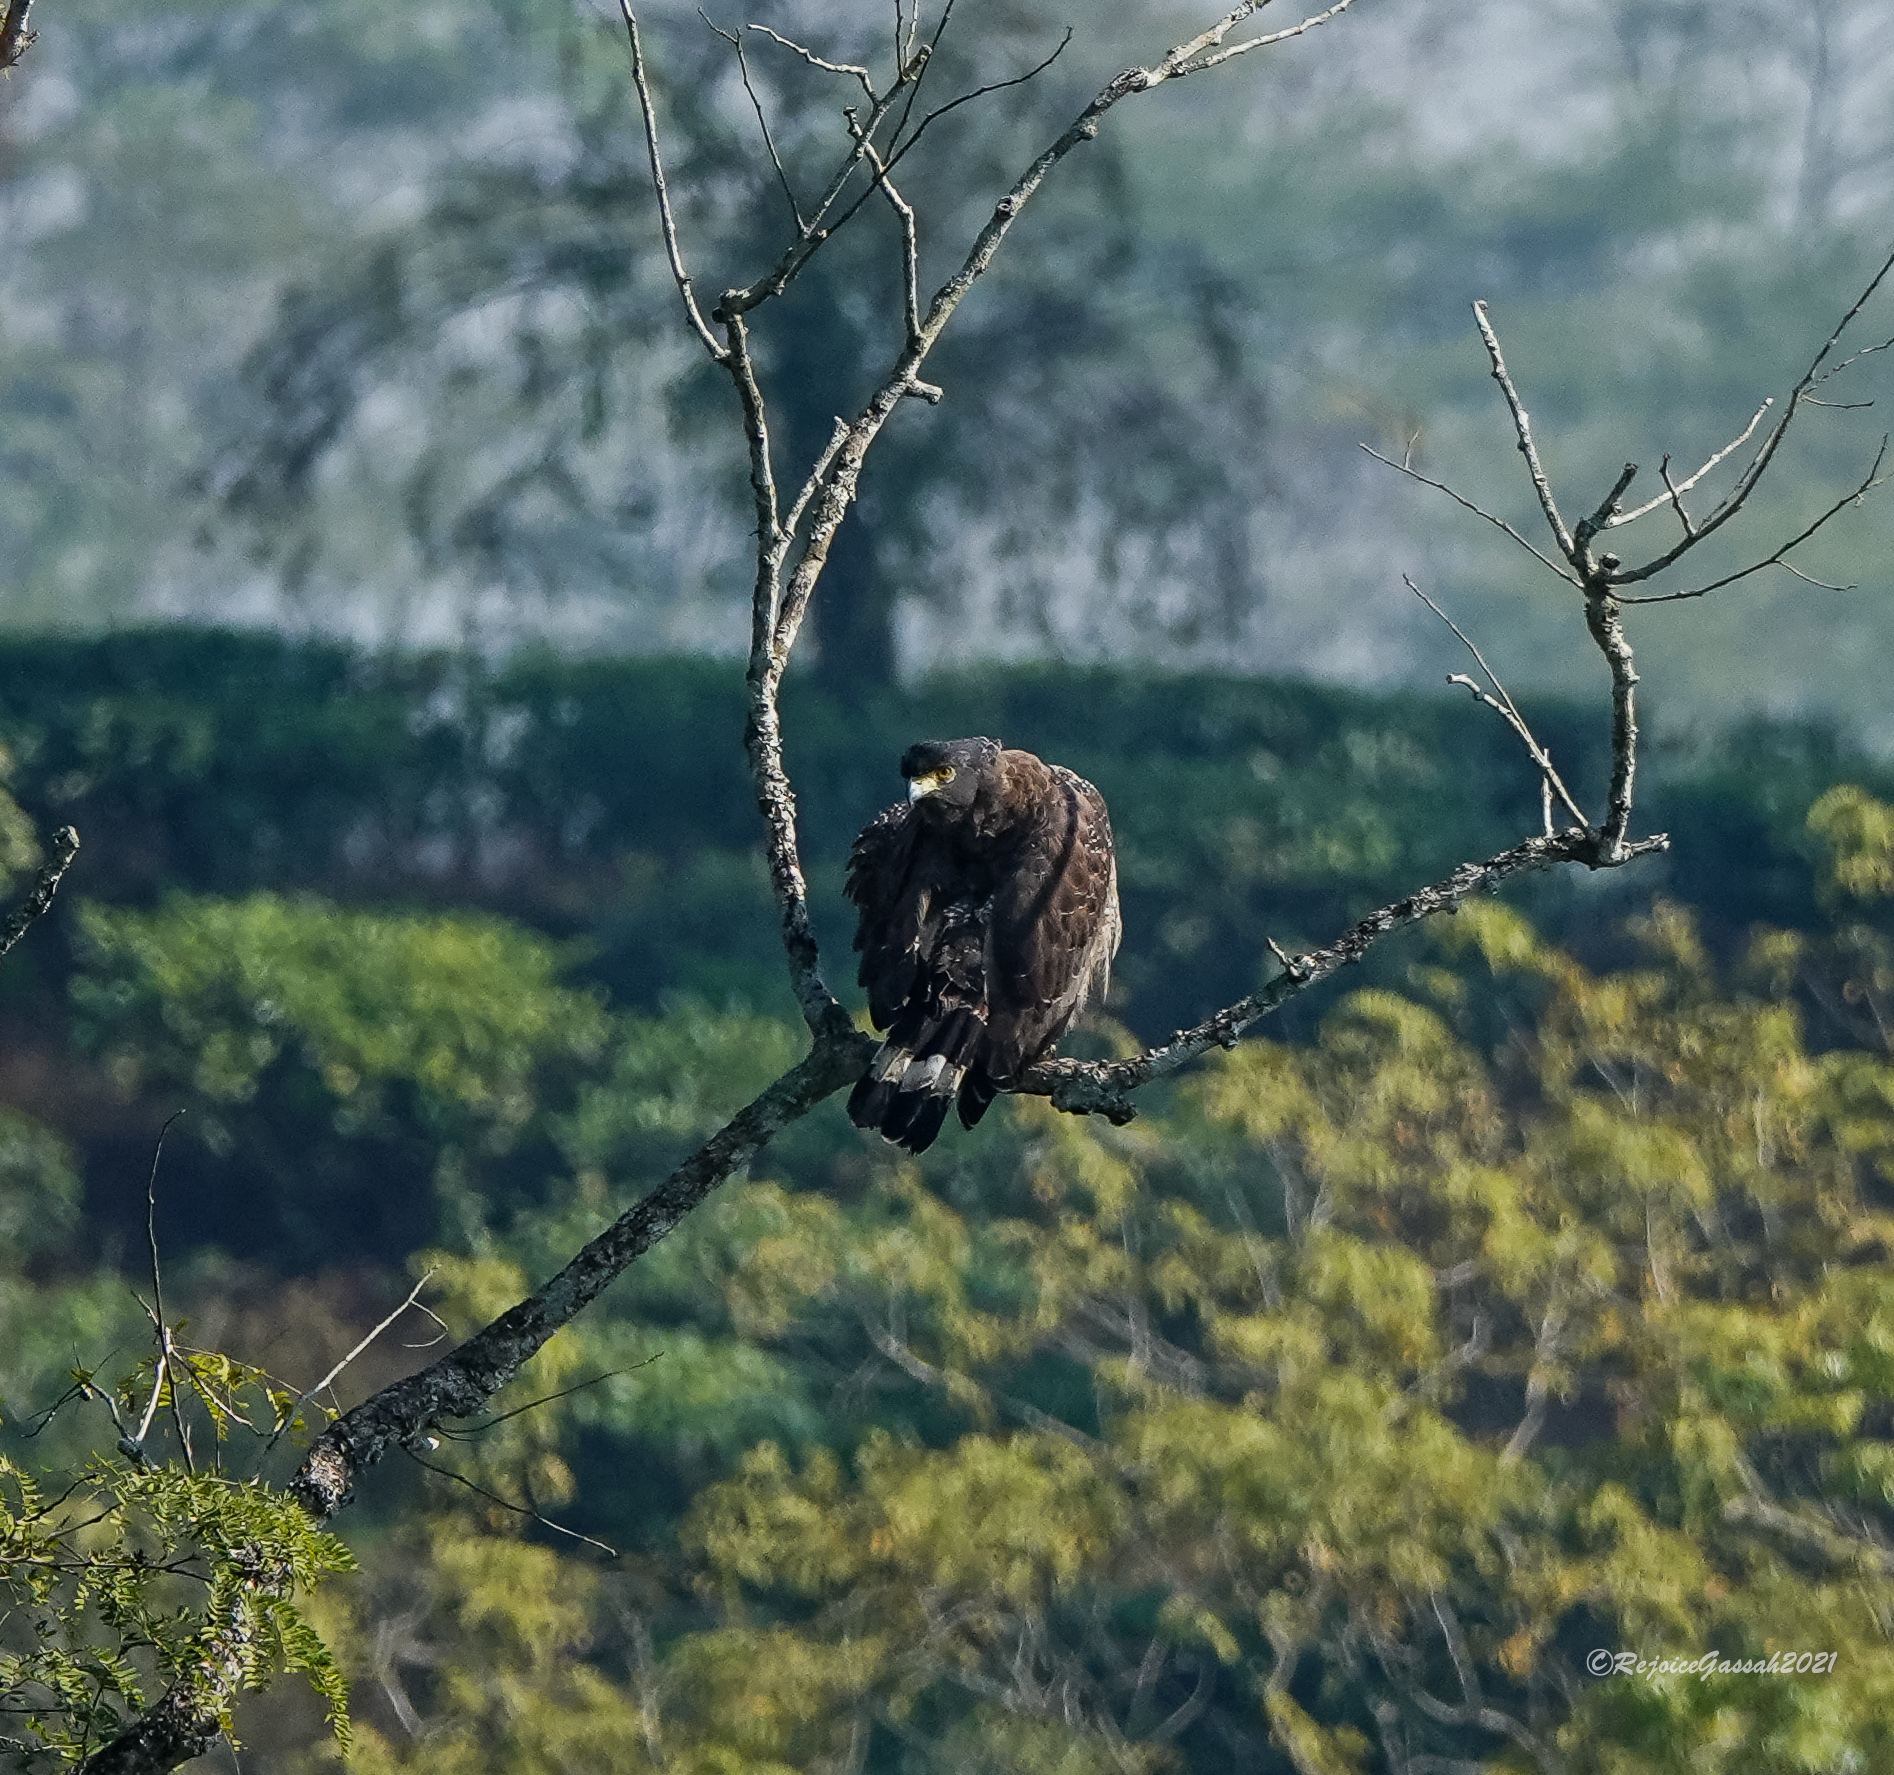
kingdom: Animalia
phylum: Chordata
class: Aves
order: Accipitriformes
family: Accipitridae
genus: Spilornis
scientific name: Spilornis cheela
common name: Crested serpent eagle
